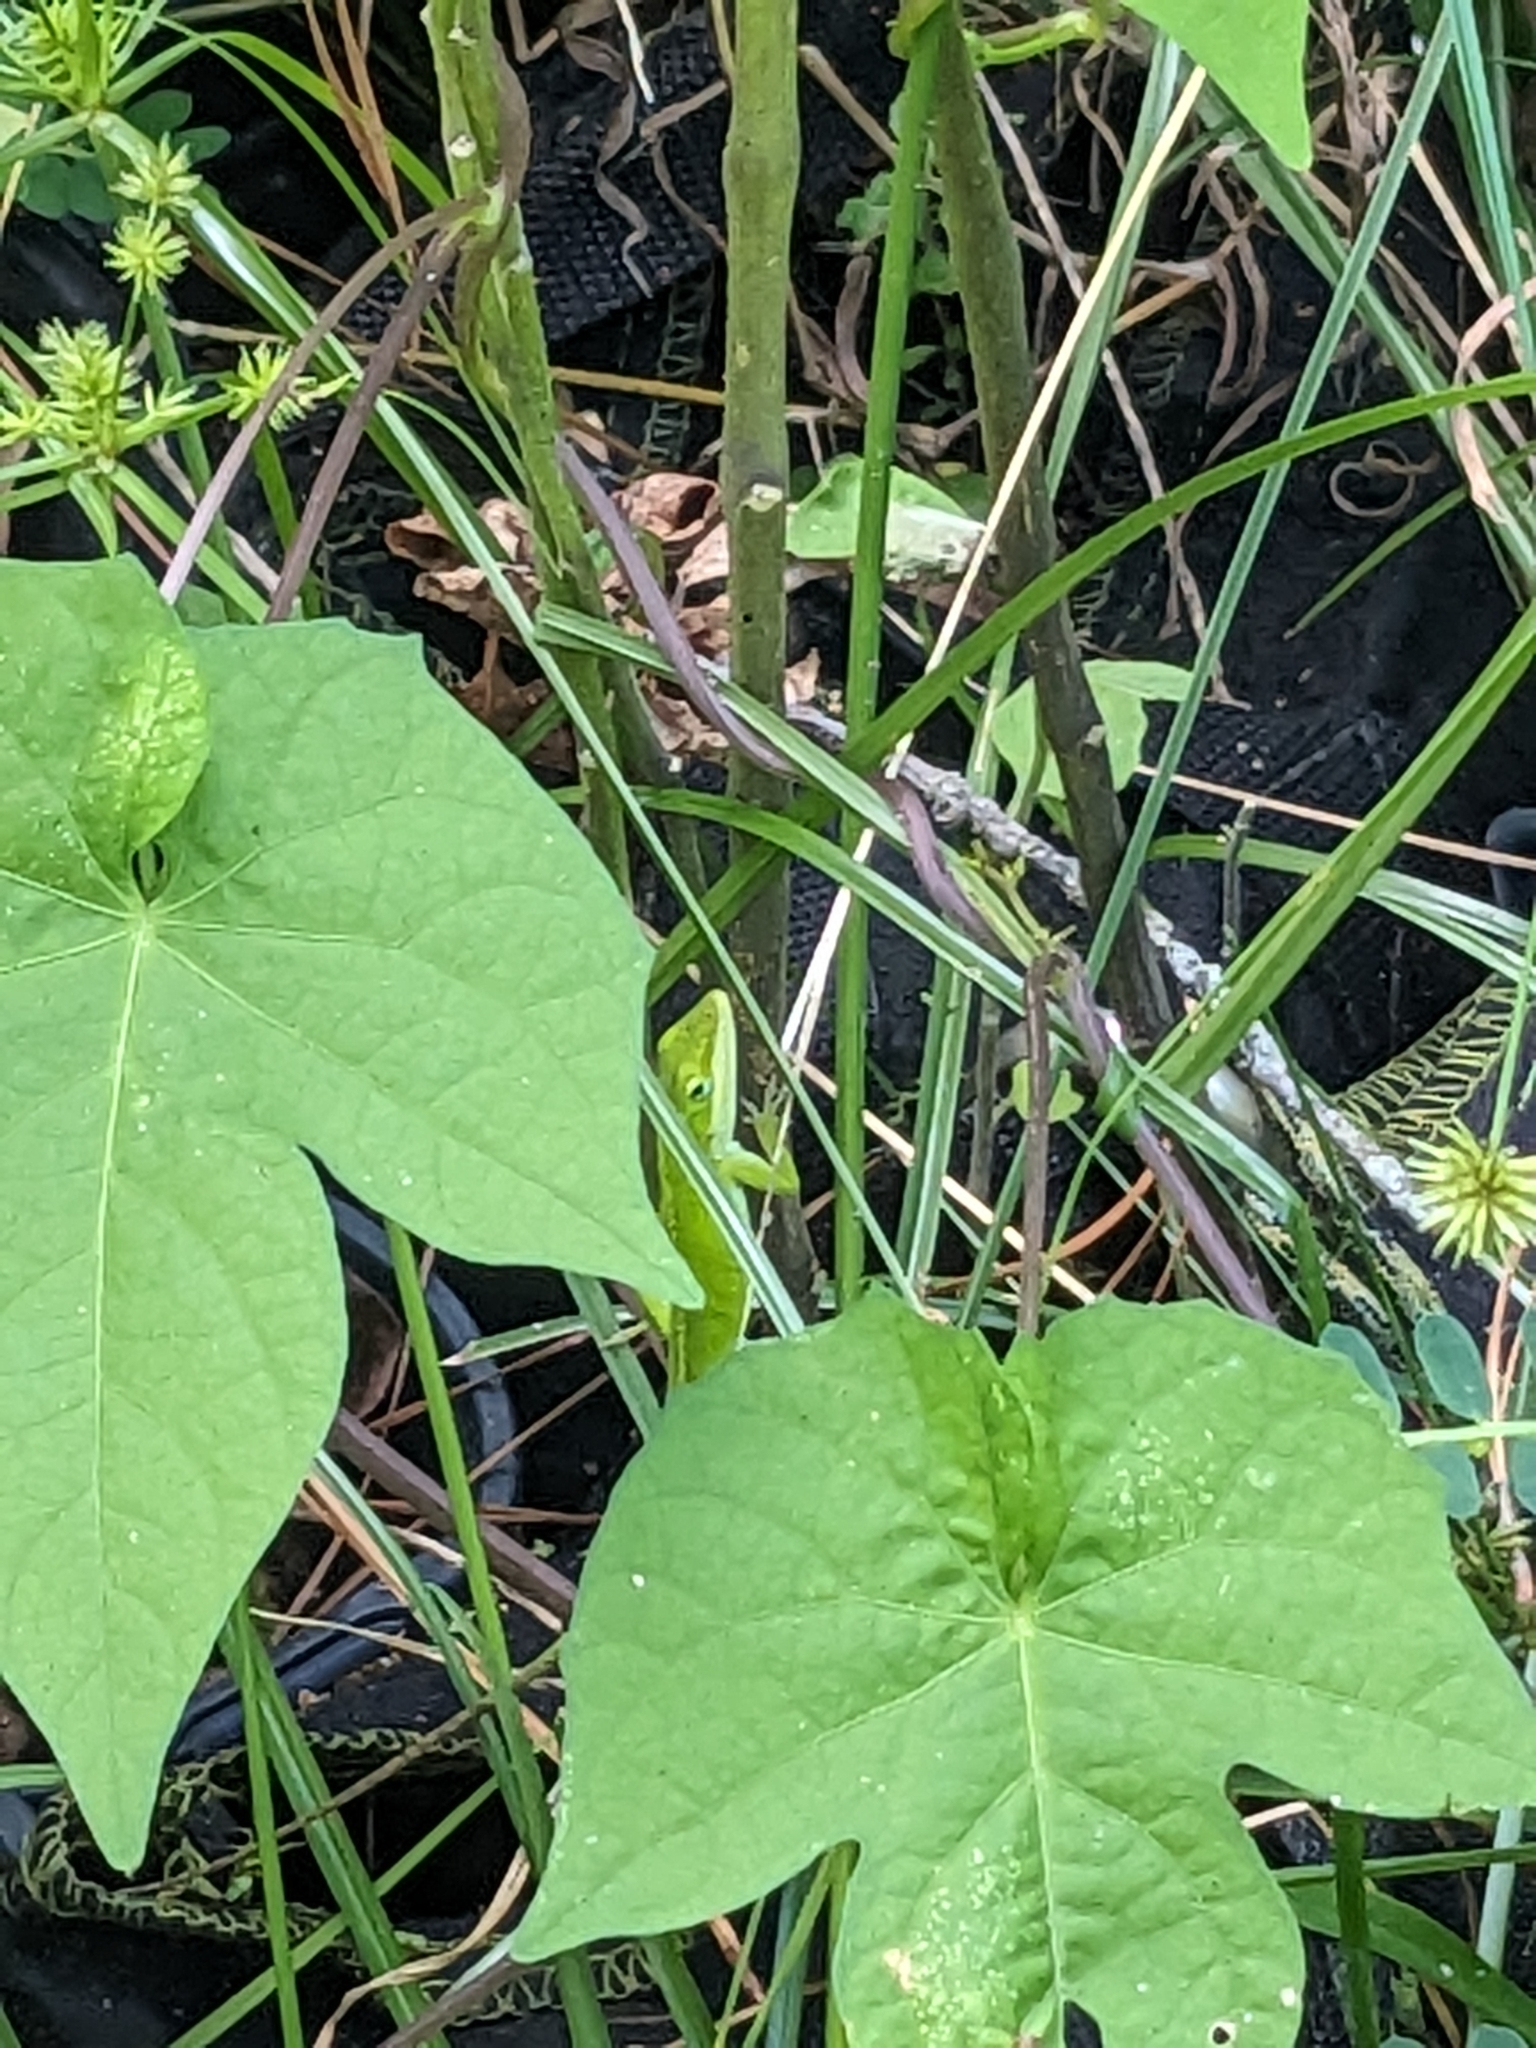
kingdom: Animalia
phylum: Chordata
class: Squamata
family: Dactyloidae
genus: Anolis
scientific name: Anolis carolinensis
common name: Green anole
